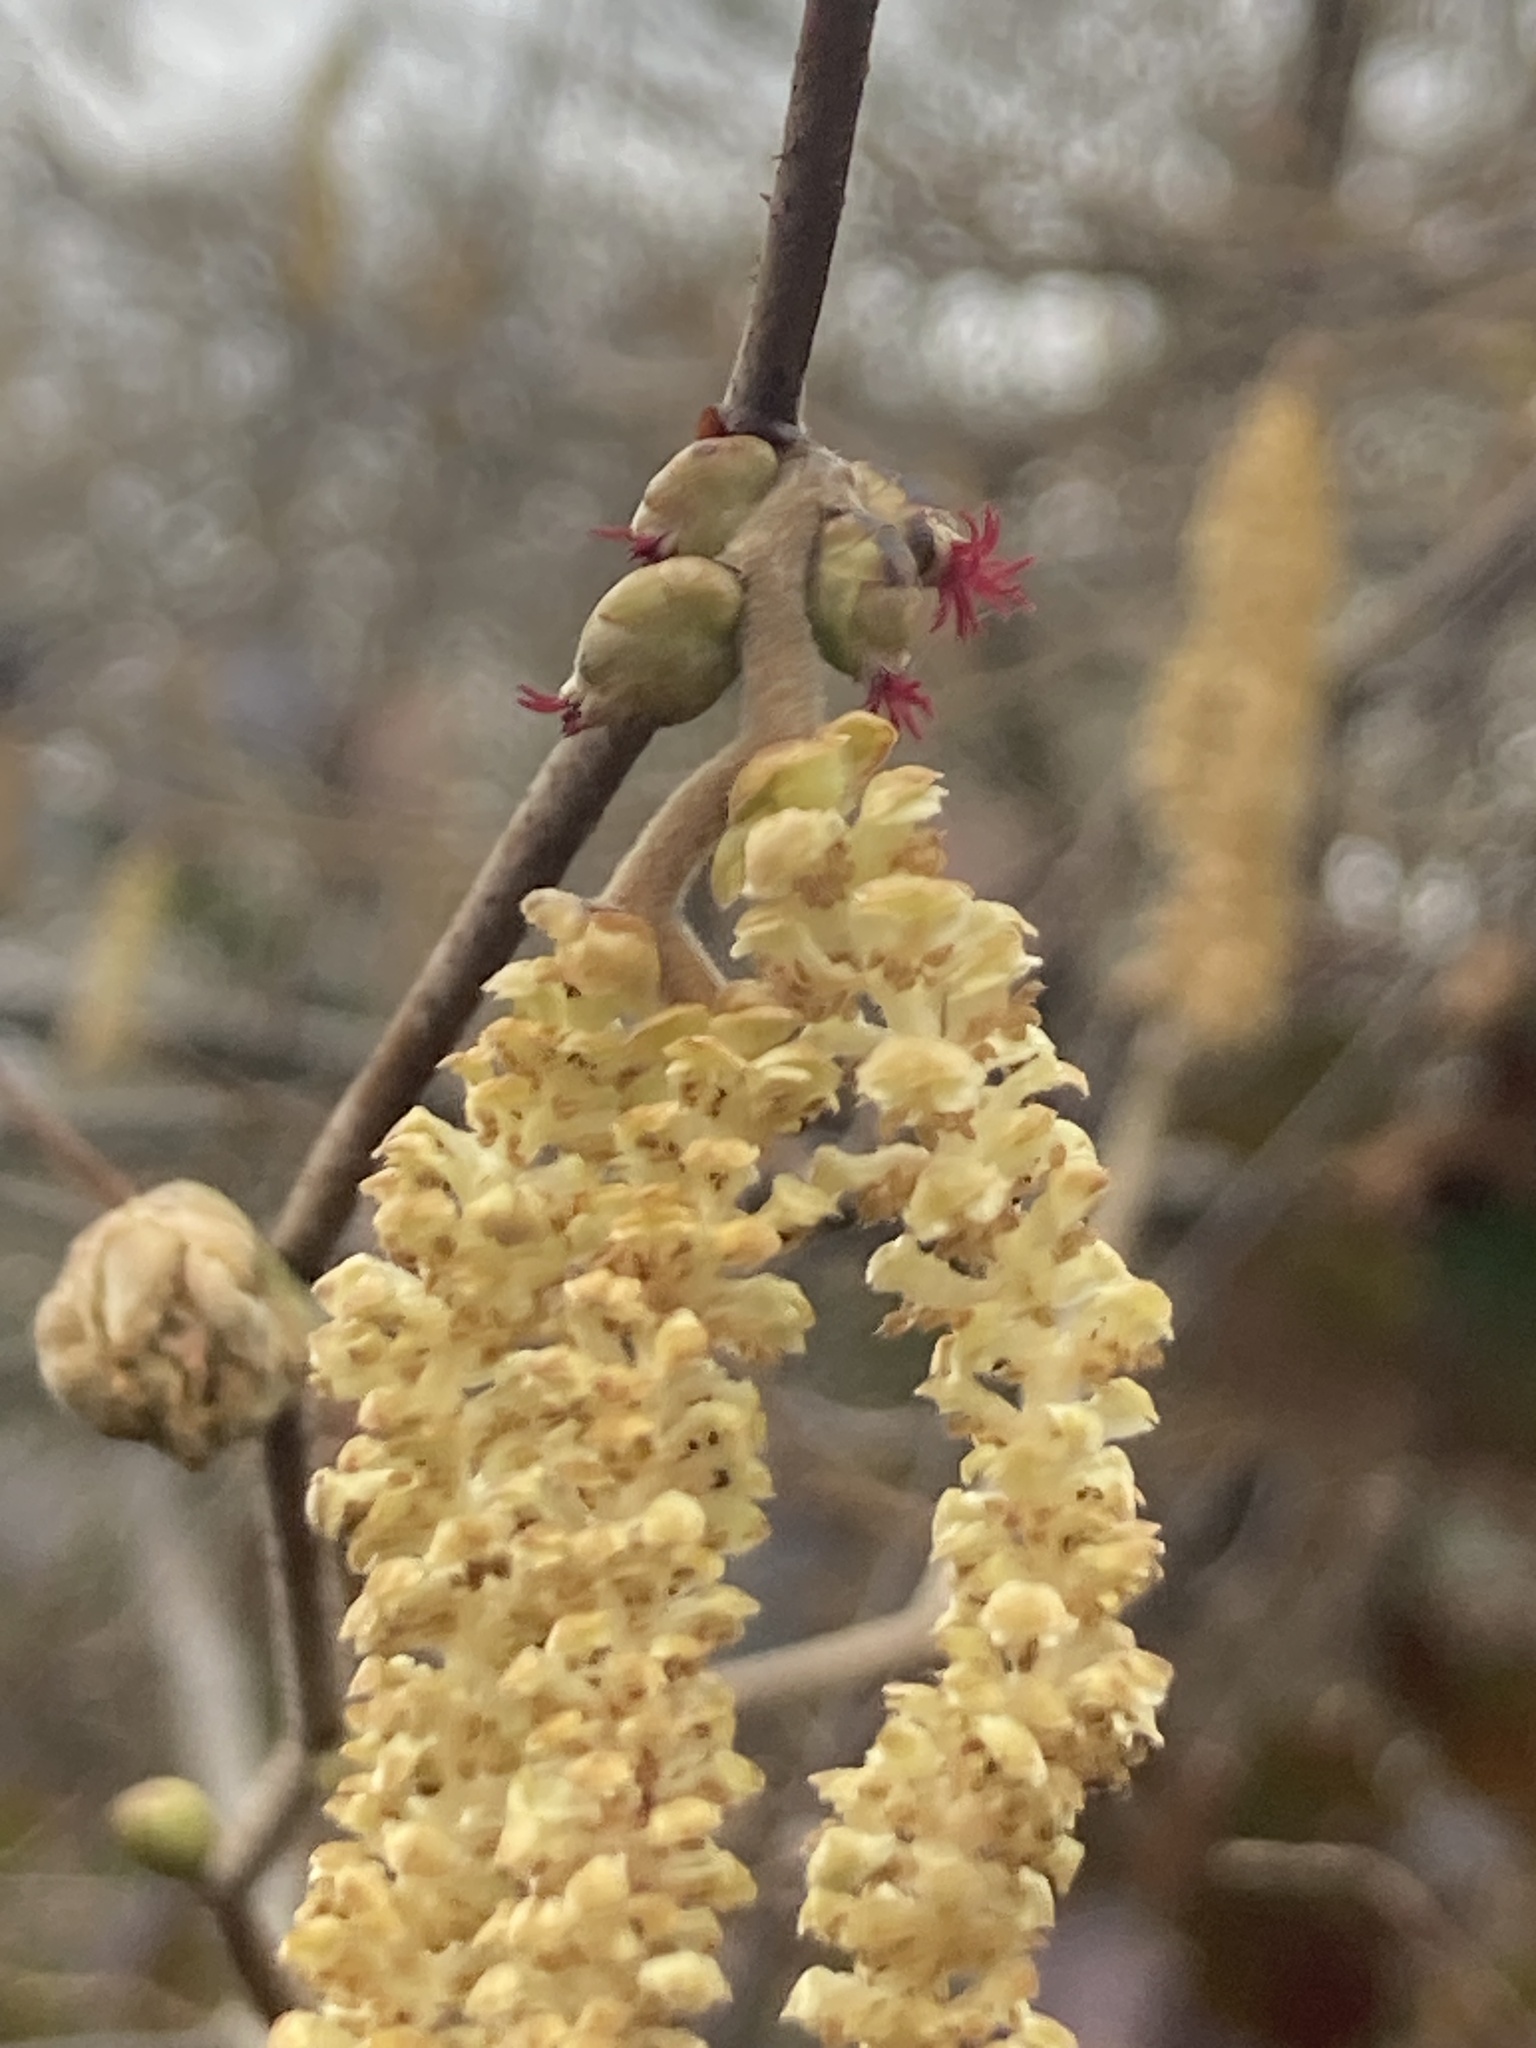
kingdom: Plantae
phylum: Tracheophyta
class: Magnoliopsida
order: Fagales
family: Betulaceae
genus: Corylus
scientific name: Corylus avellana
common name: European hazel
